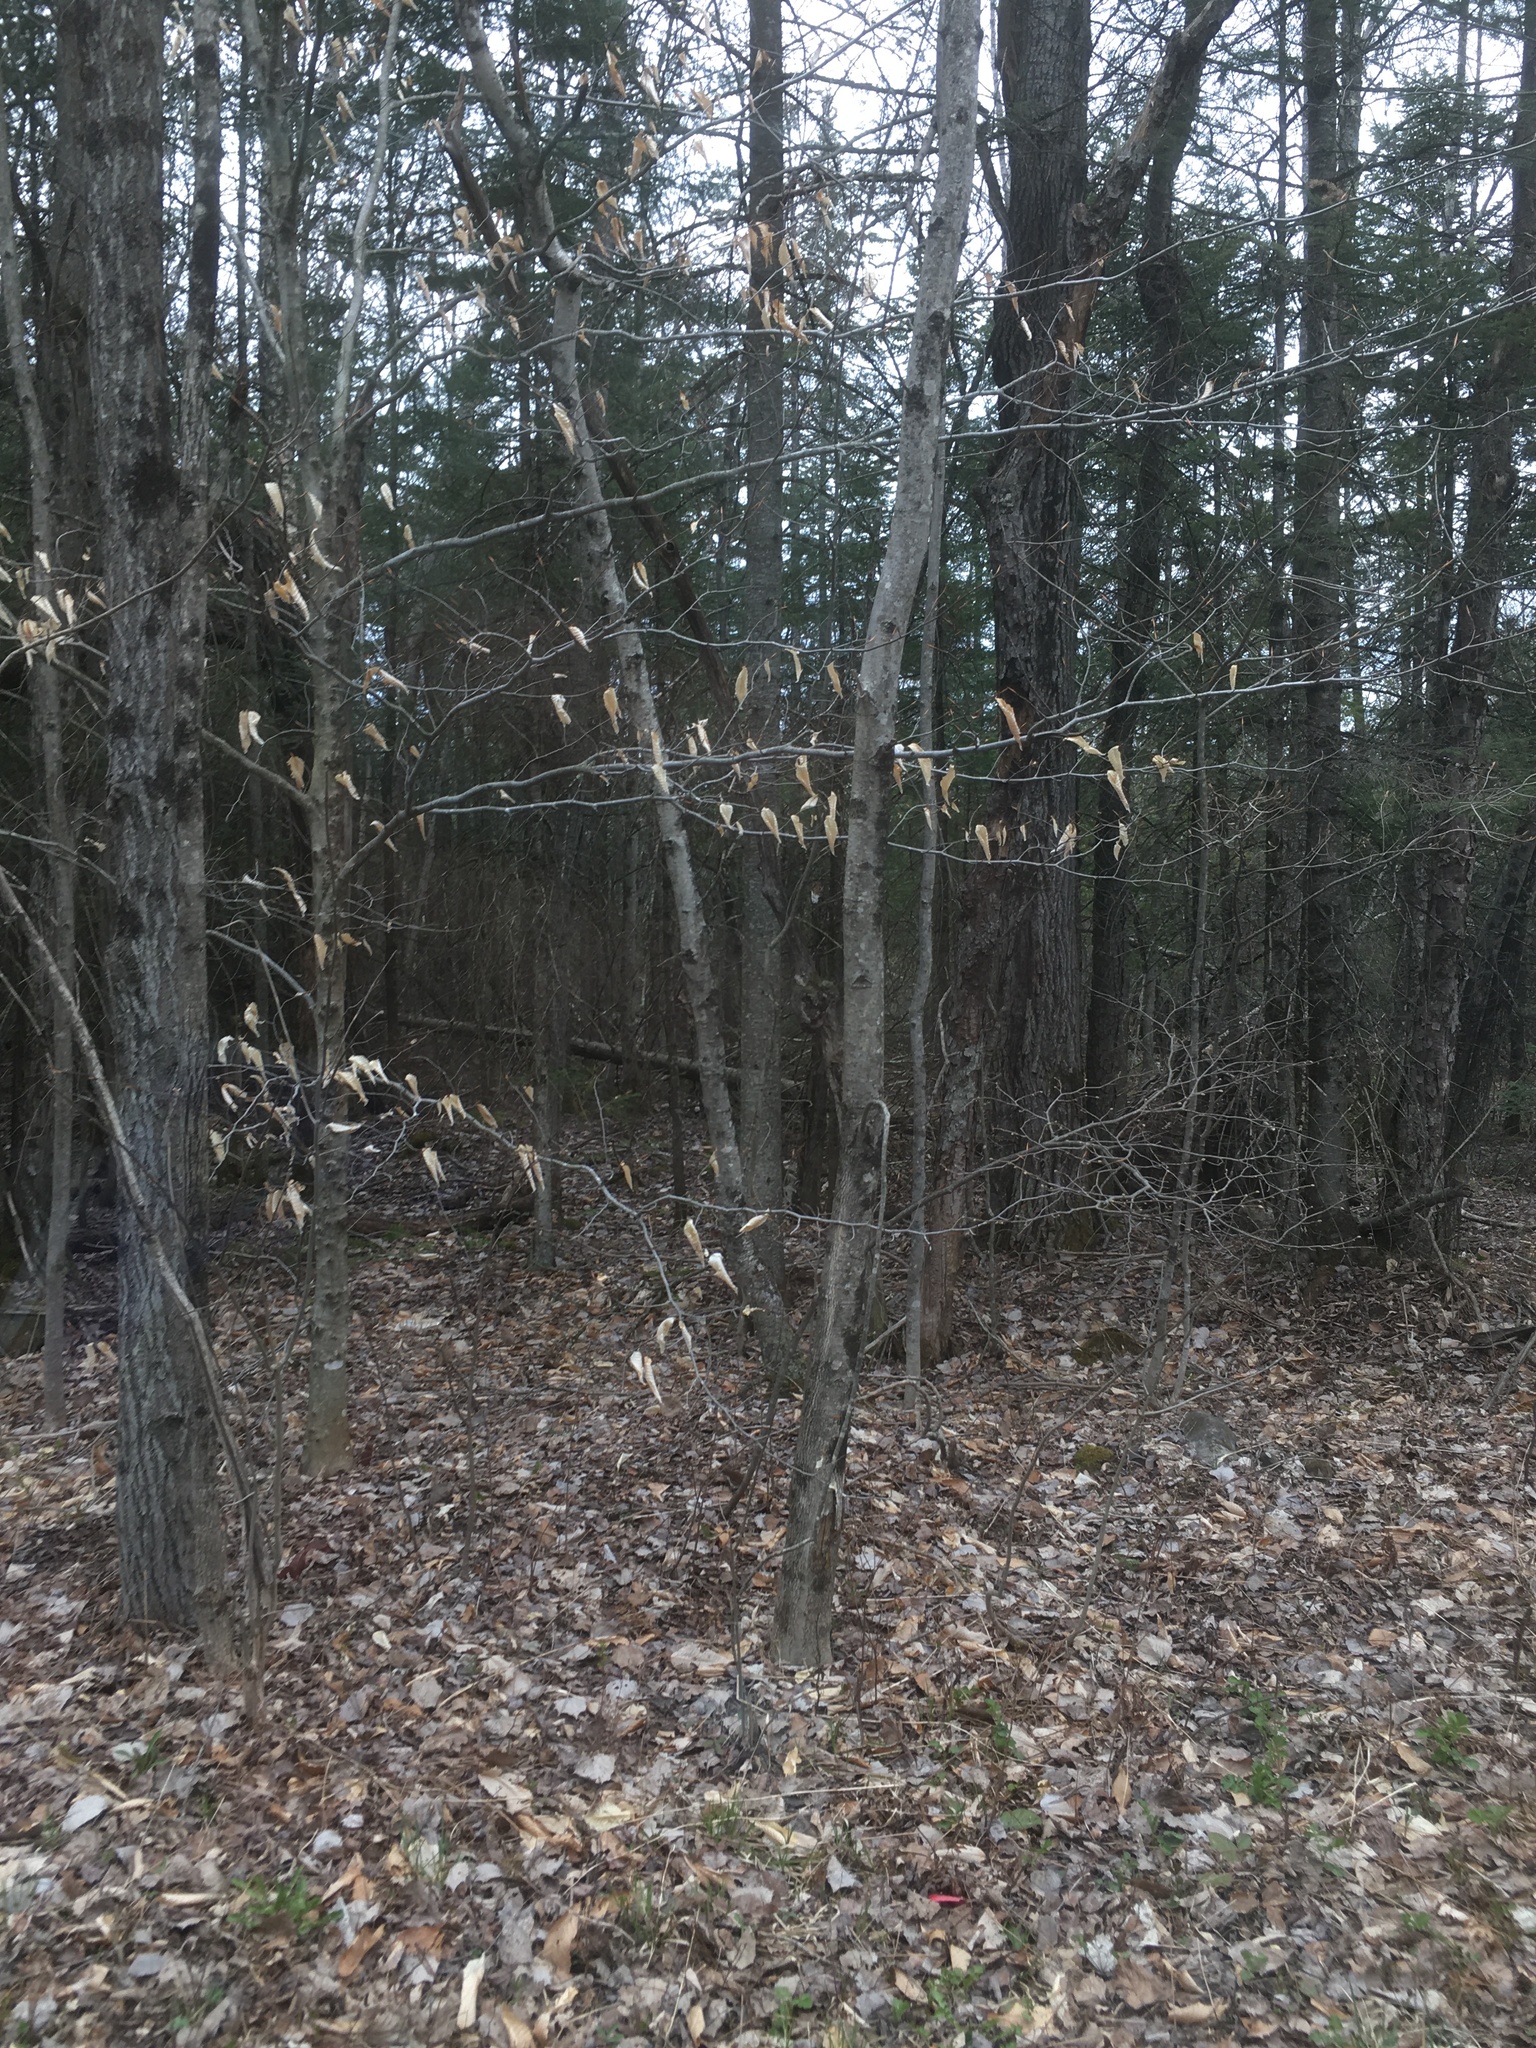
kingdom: Plantae
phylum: Tracheophyta
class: Magnoliopsida
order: Fagales
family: Fagaceae
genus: Fagus
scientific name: Fagus grandifolia
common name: American beech
